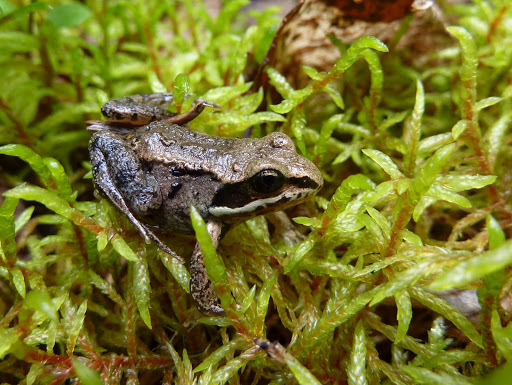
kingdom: Animalia
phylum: Chordata
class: Amphibia
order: Anura
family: Ranidae
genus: Lithobates
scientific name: Lithobates sylvaticus
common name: Wood frog
